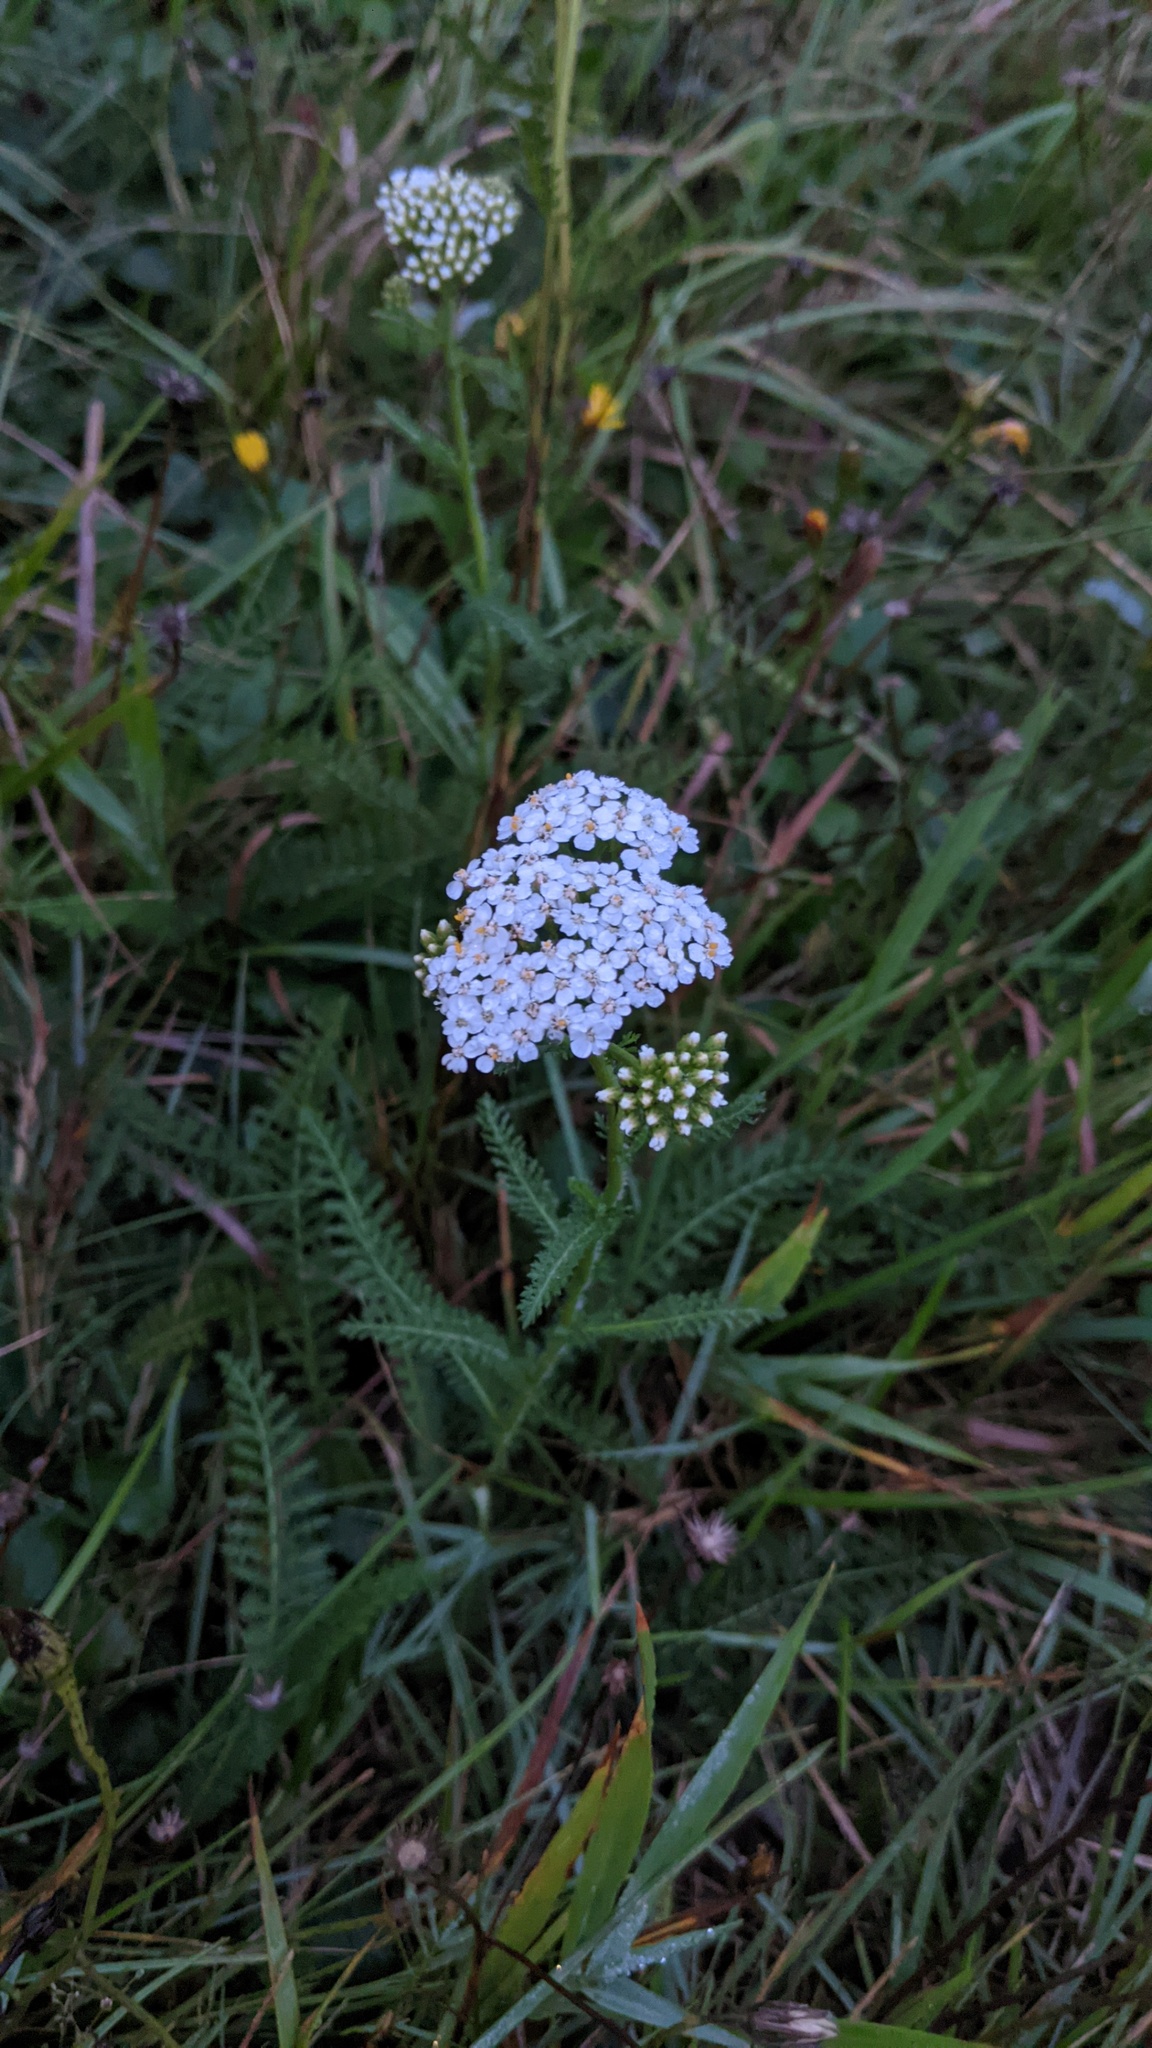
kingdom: Plantae
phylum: Tracheophyta
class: Magnoliopsida
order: Asterales
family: Asteraceae
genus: Achillea
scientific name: Achillea millefolium
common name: Yarrow
